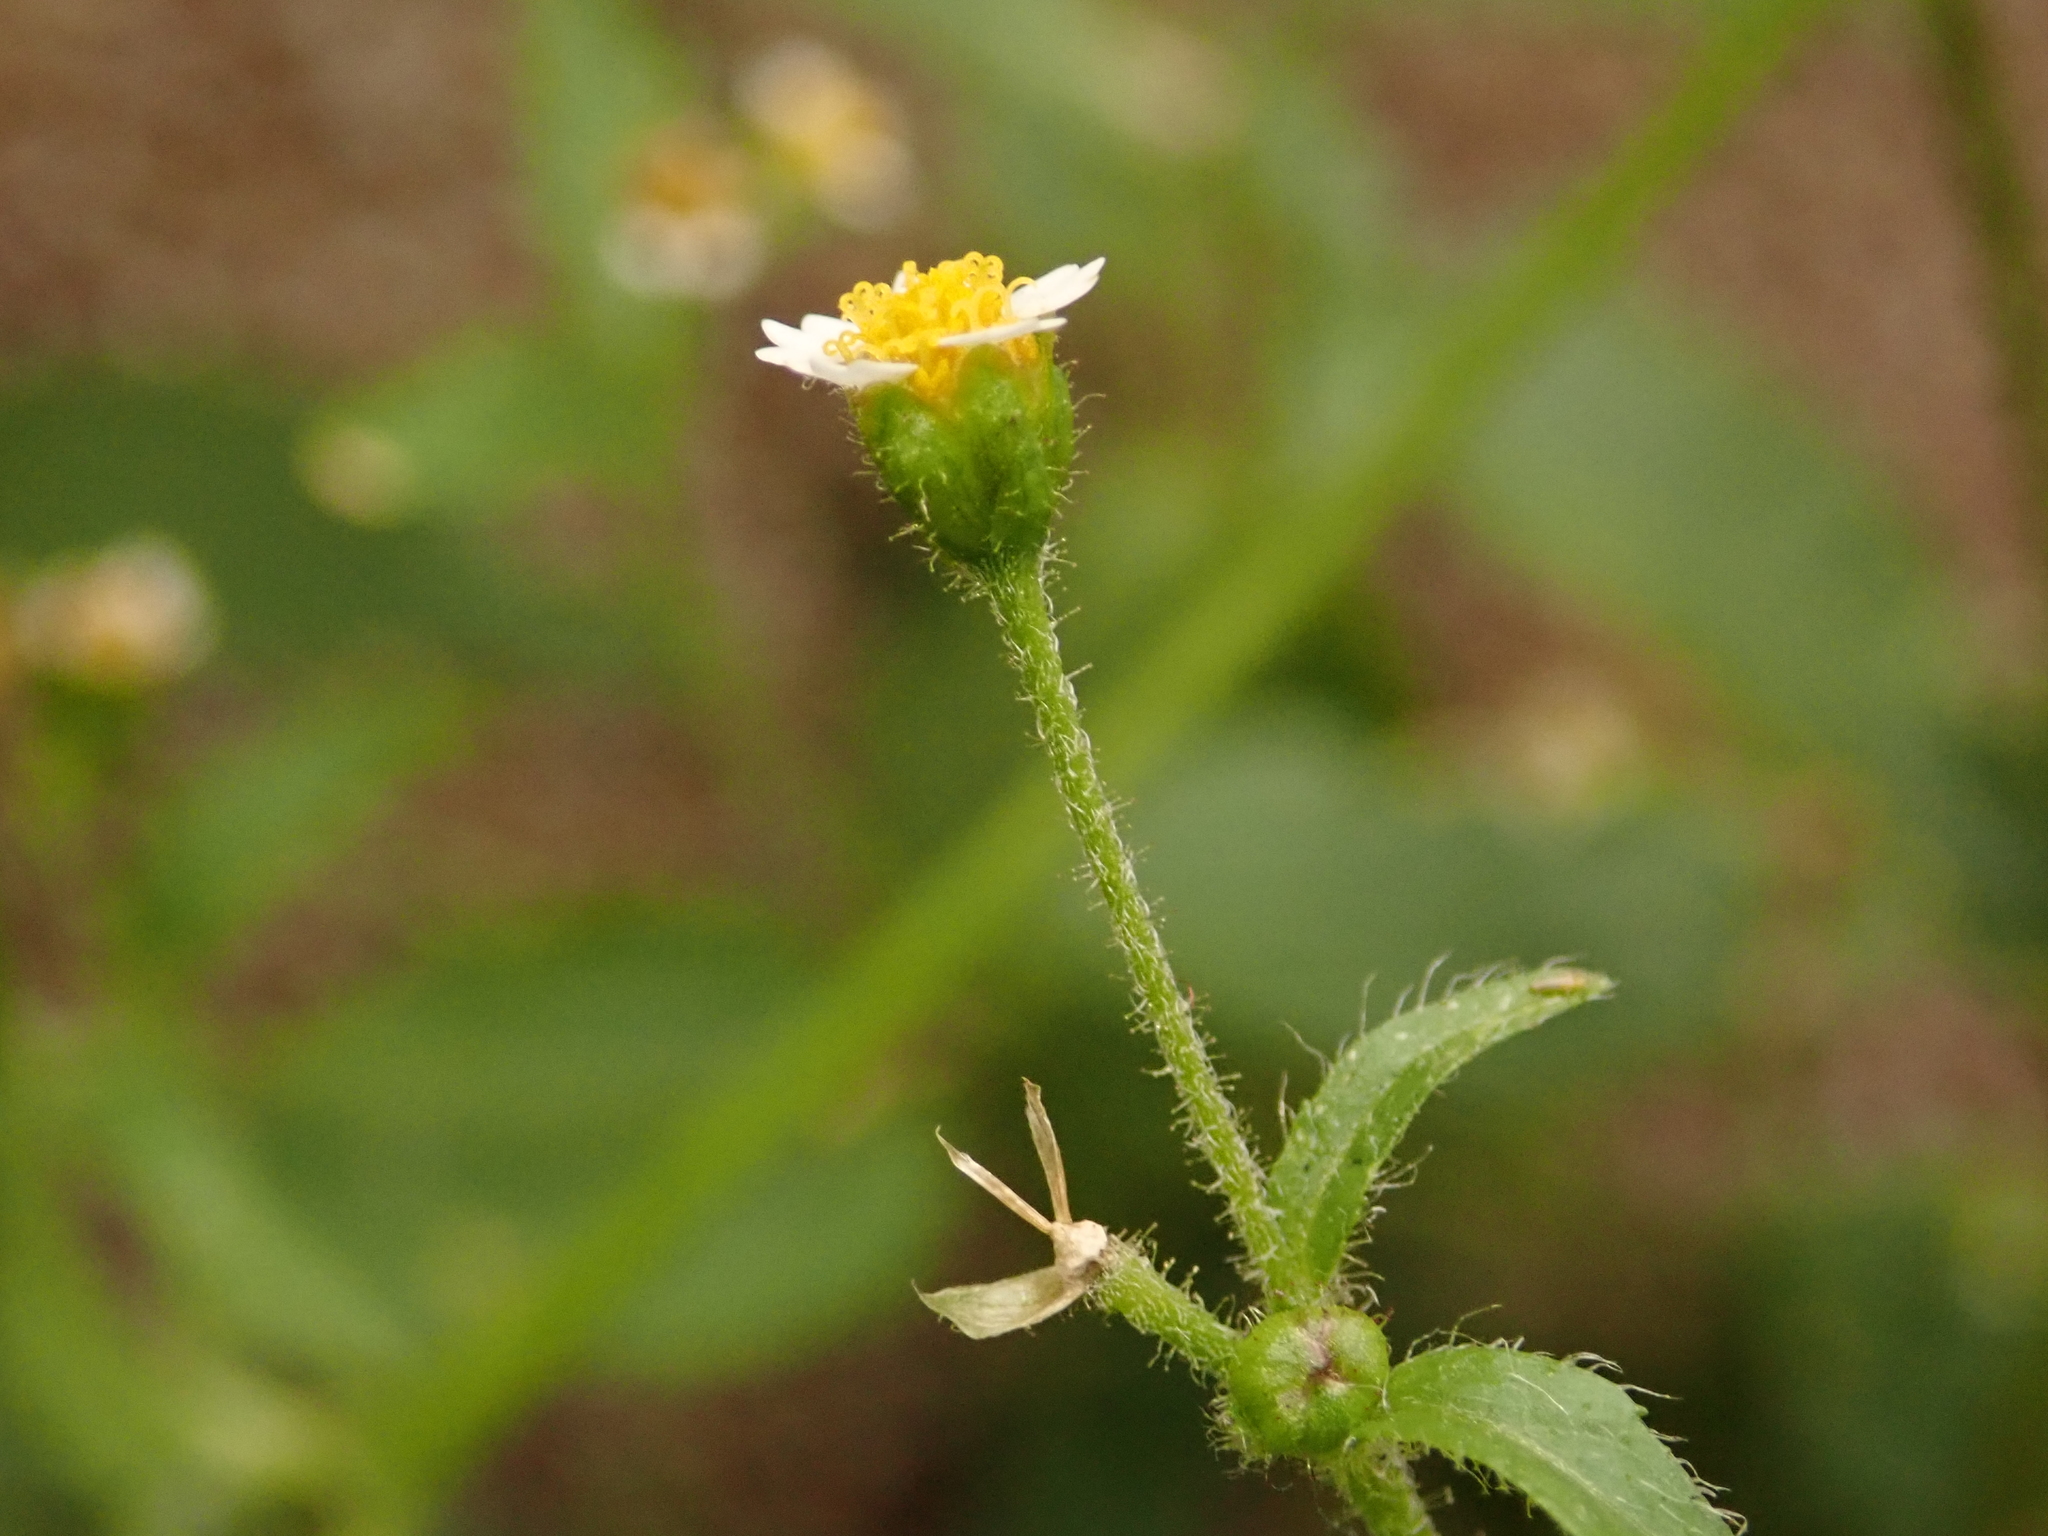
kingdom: Plantae
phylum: Tracheophyta
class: Magnoliopsida
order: Asterales
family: Asteraceae
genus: Galinsoga
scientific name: Galinsoga quadriradiata
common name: Shaggy soldier
